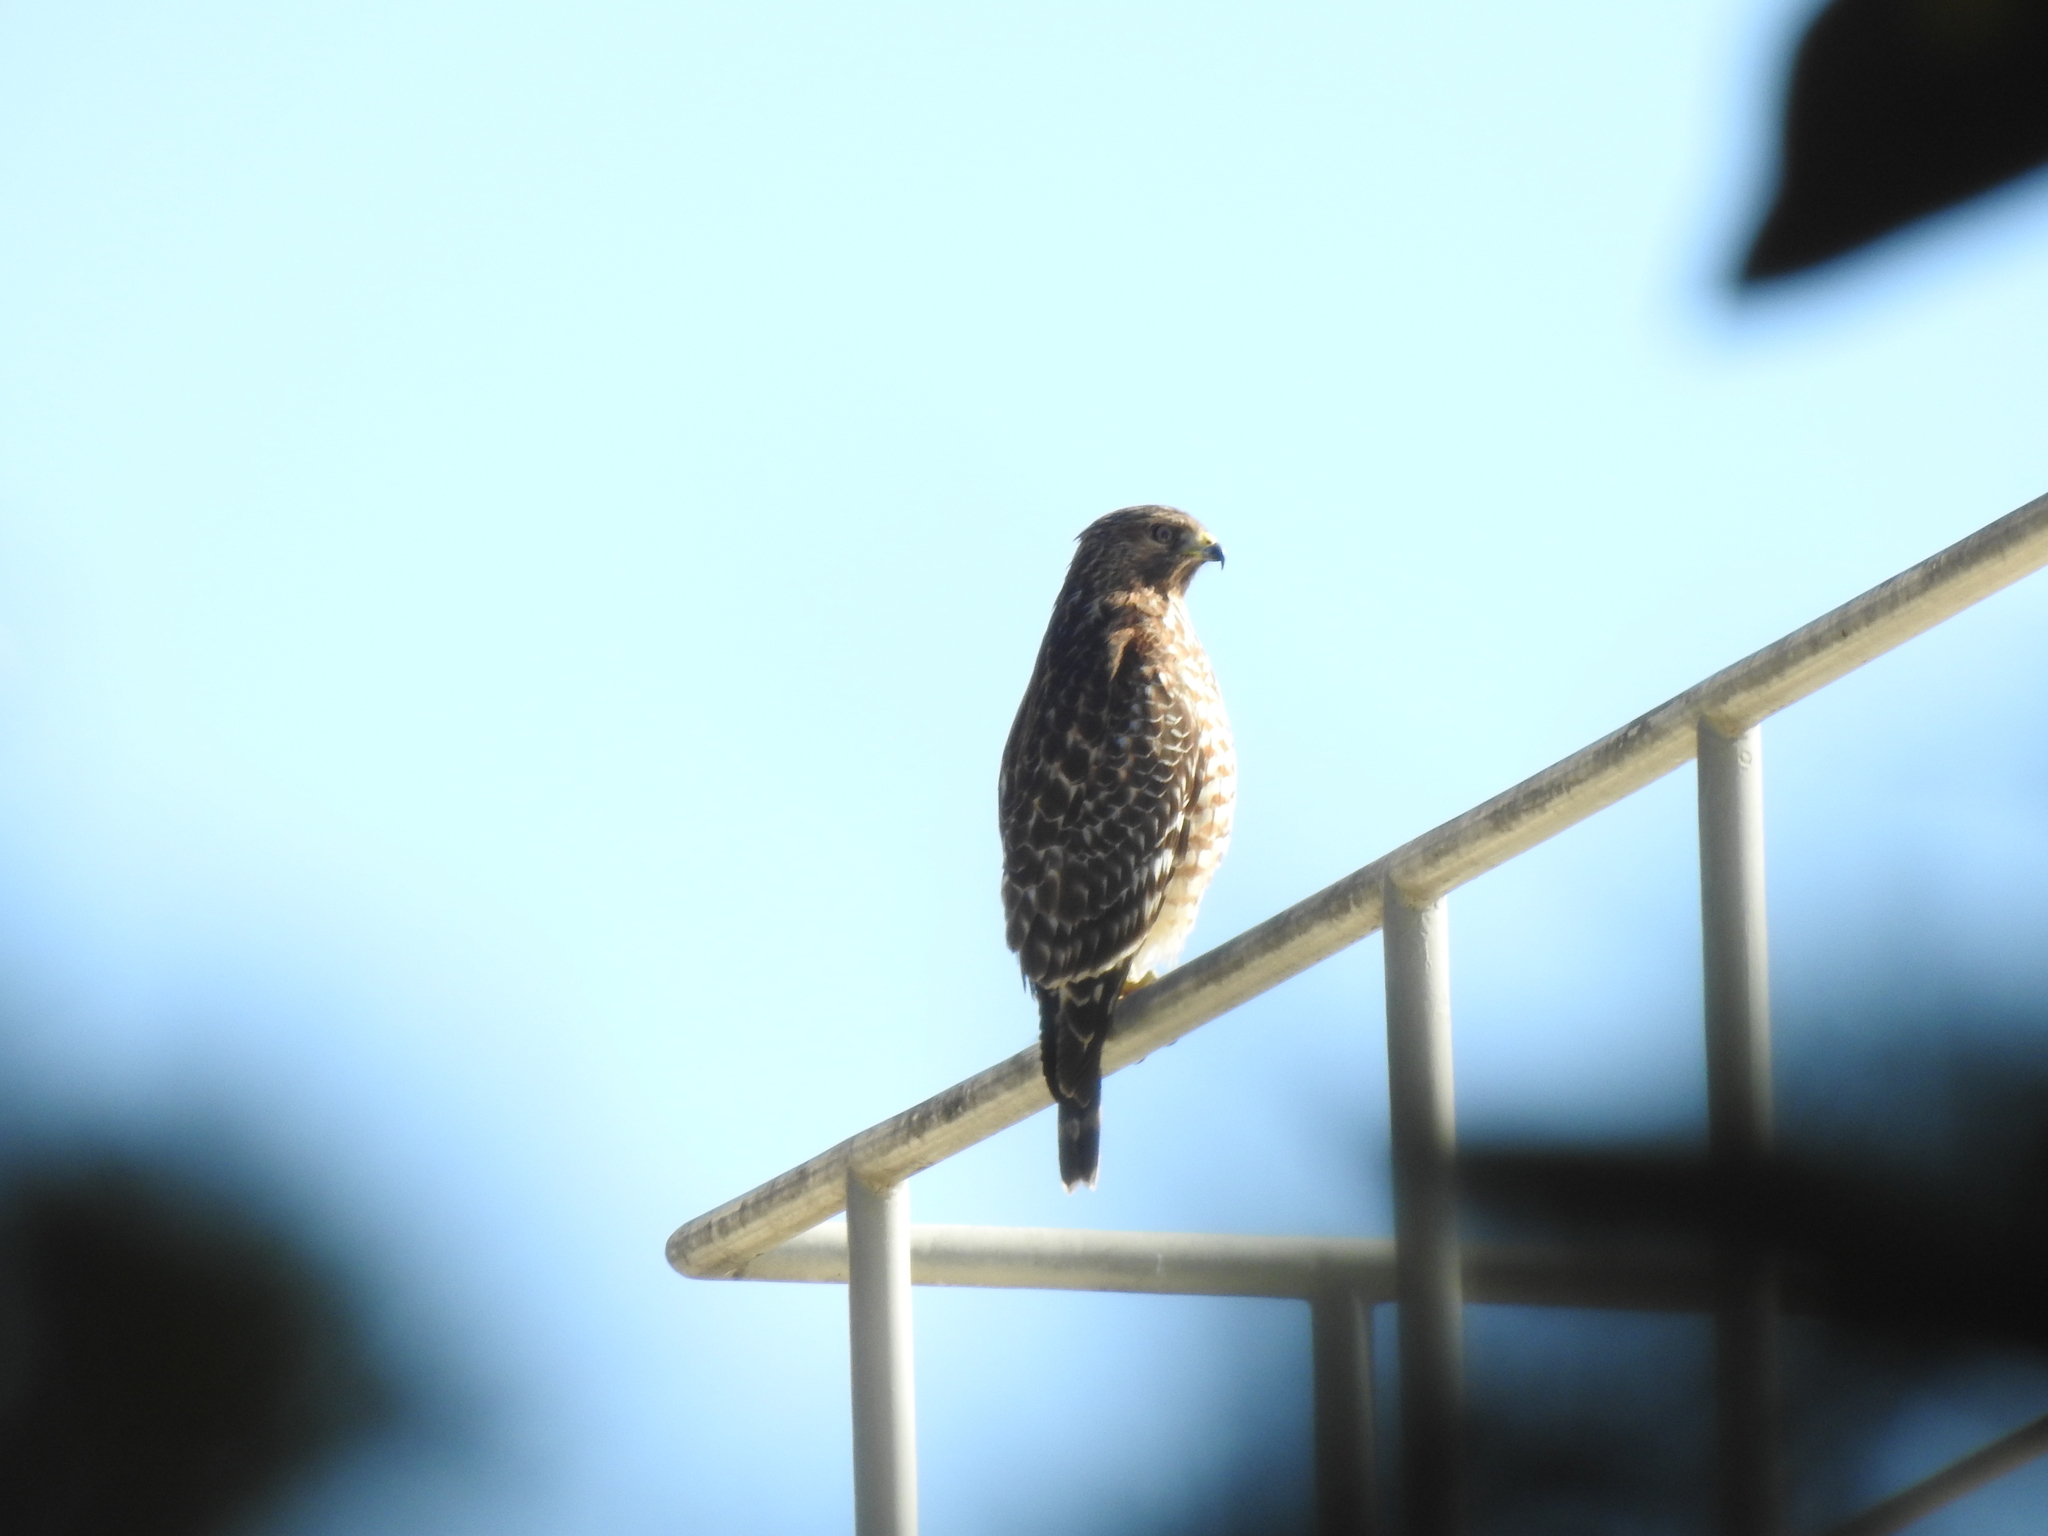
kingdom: Animalia
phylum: Chordata
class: Aves
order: Accipitriformes
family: Accipitridae
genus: Buteo
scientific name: Buteo lineatus
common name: Red-shouldered hawk
